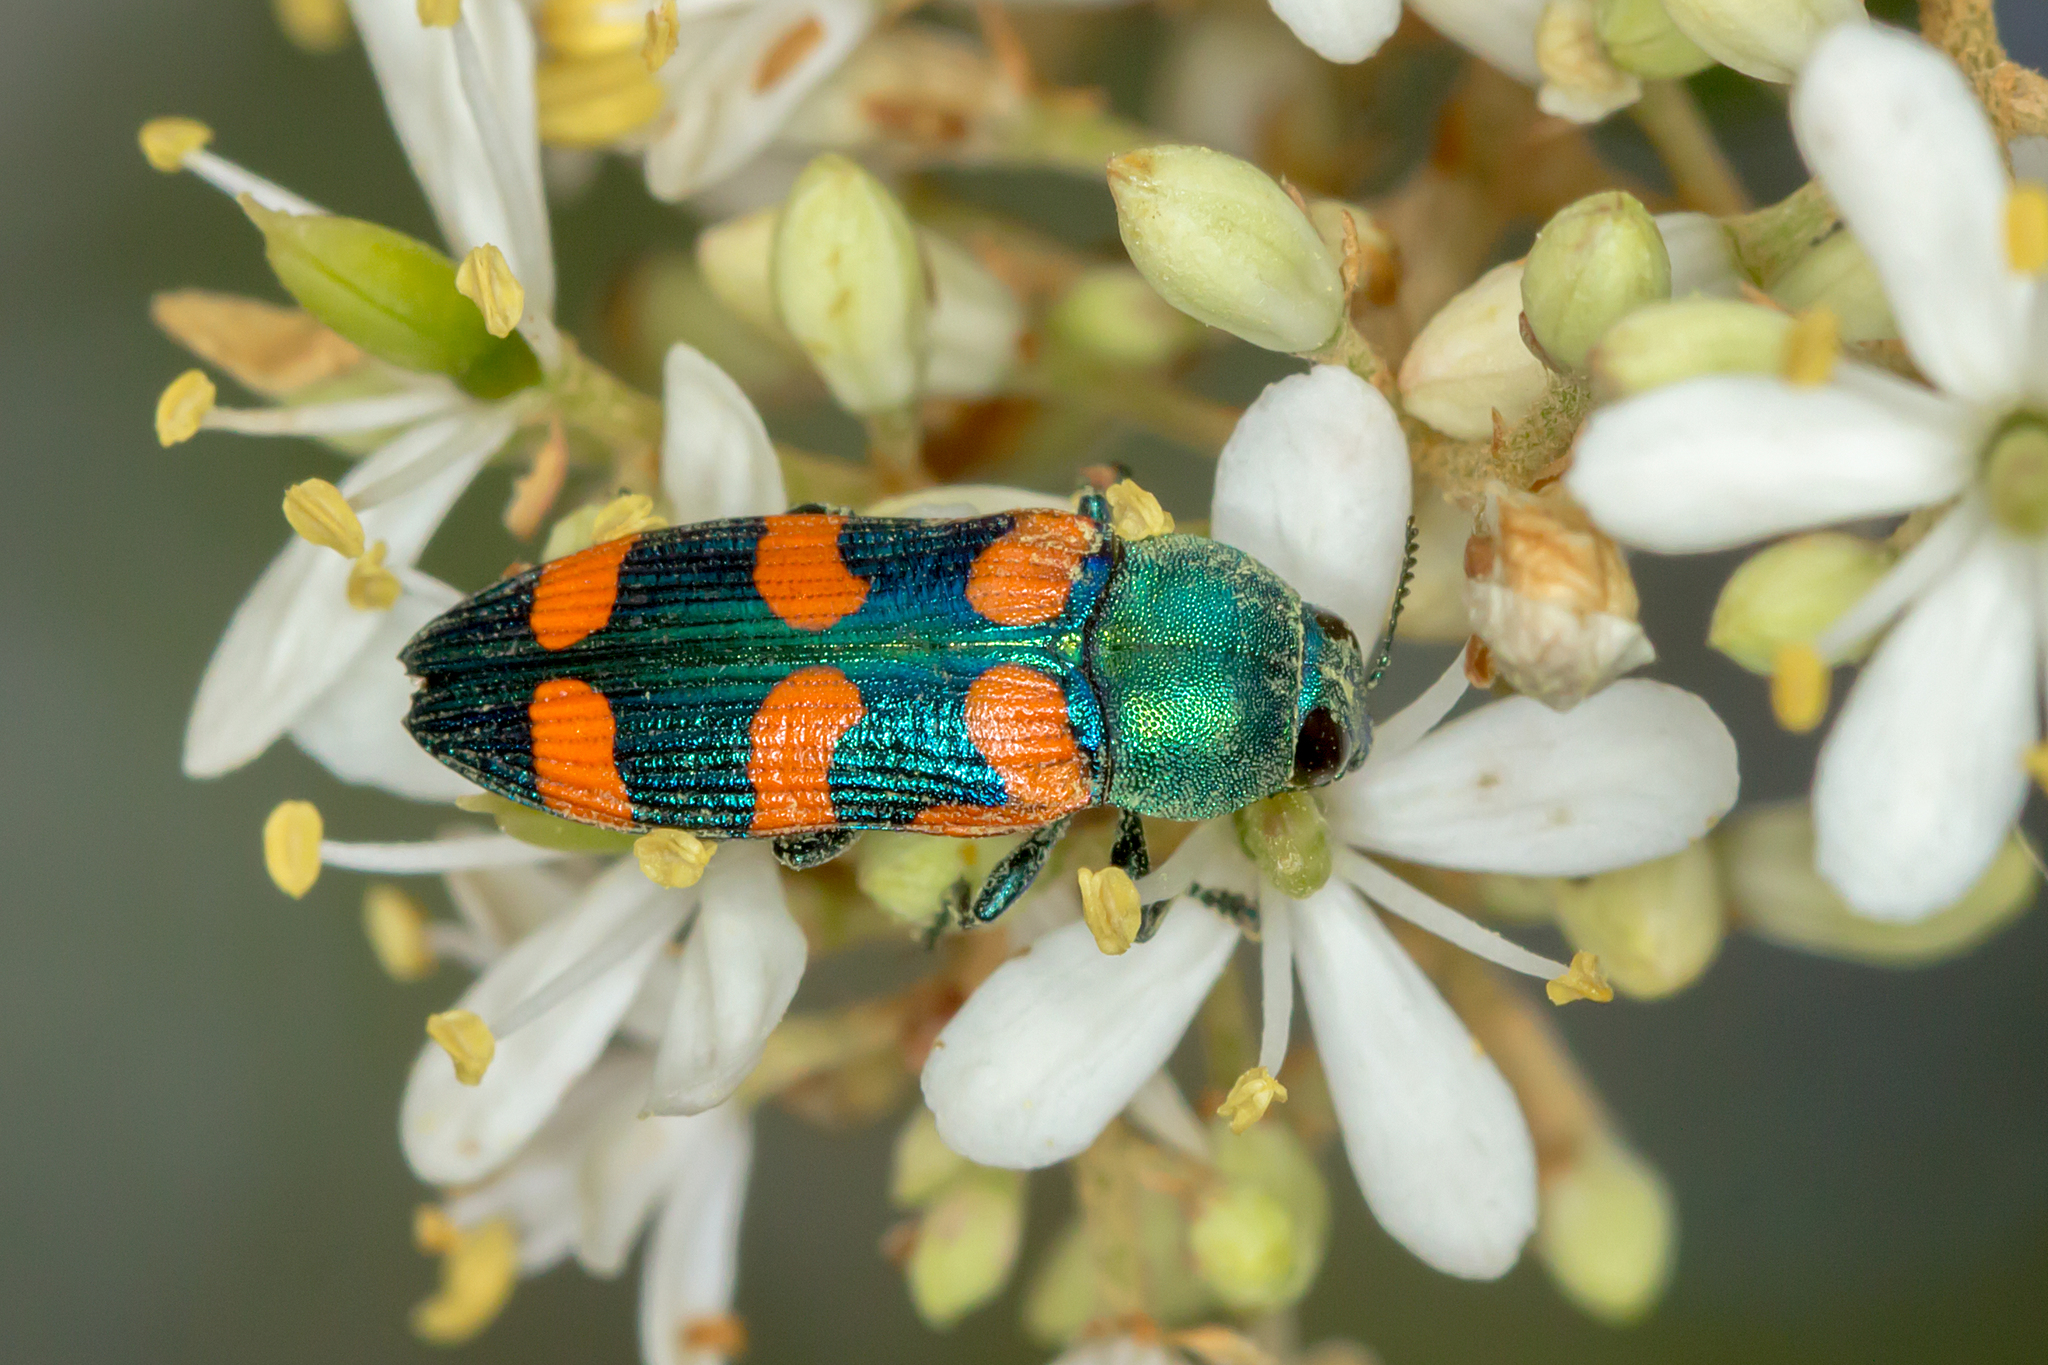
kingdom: Animalia
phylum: Arthropoda
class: Insecta
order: Coleoptera
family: Buprestidae
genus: Castiarina
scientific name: Castiarina vegeta
